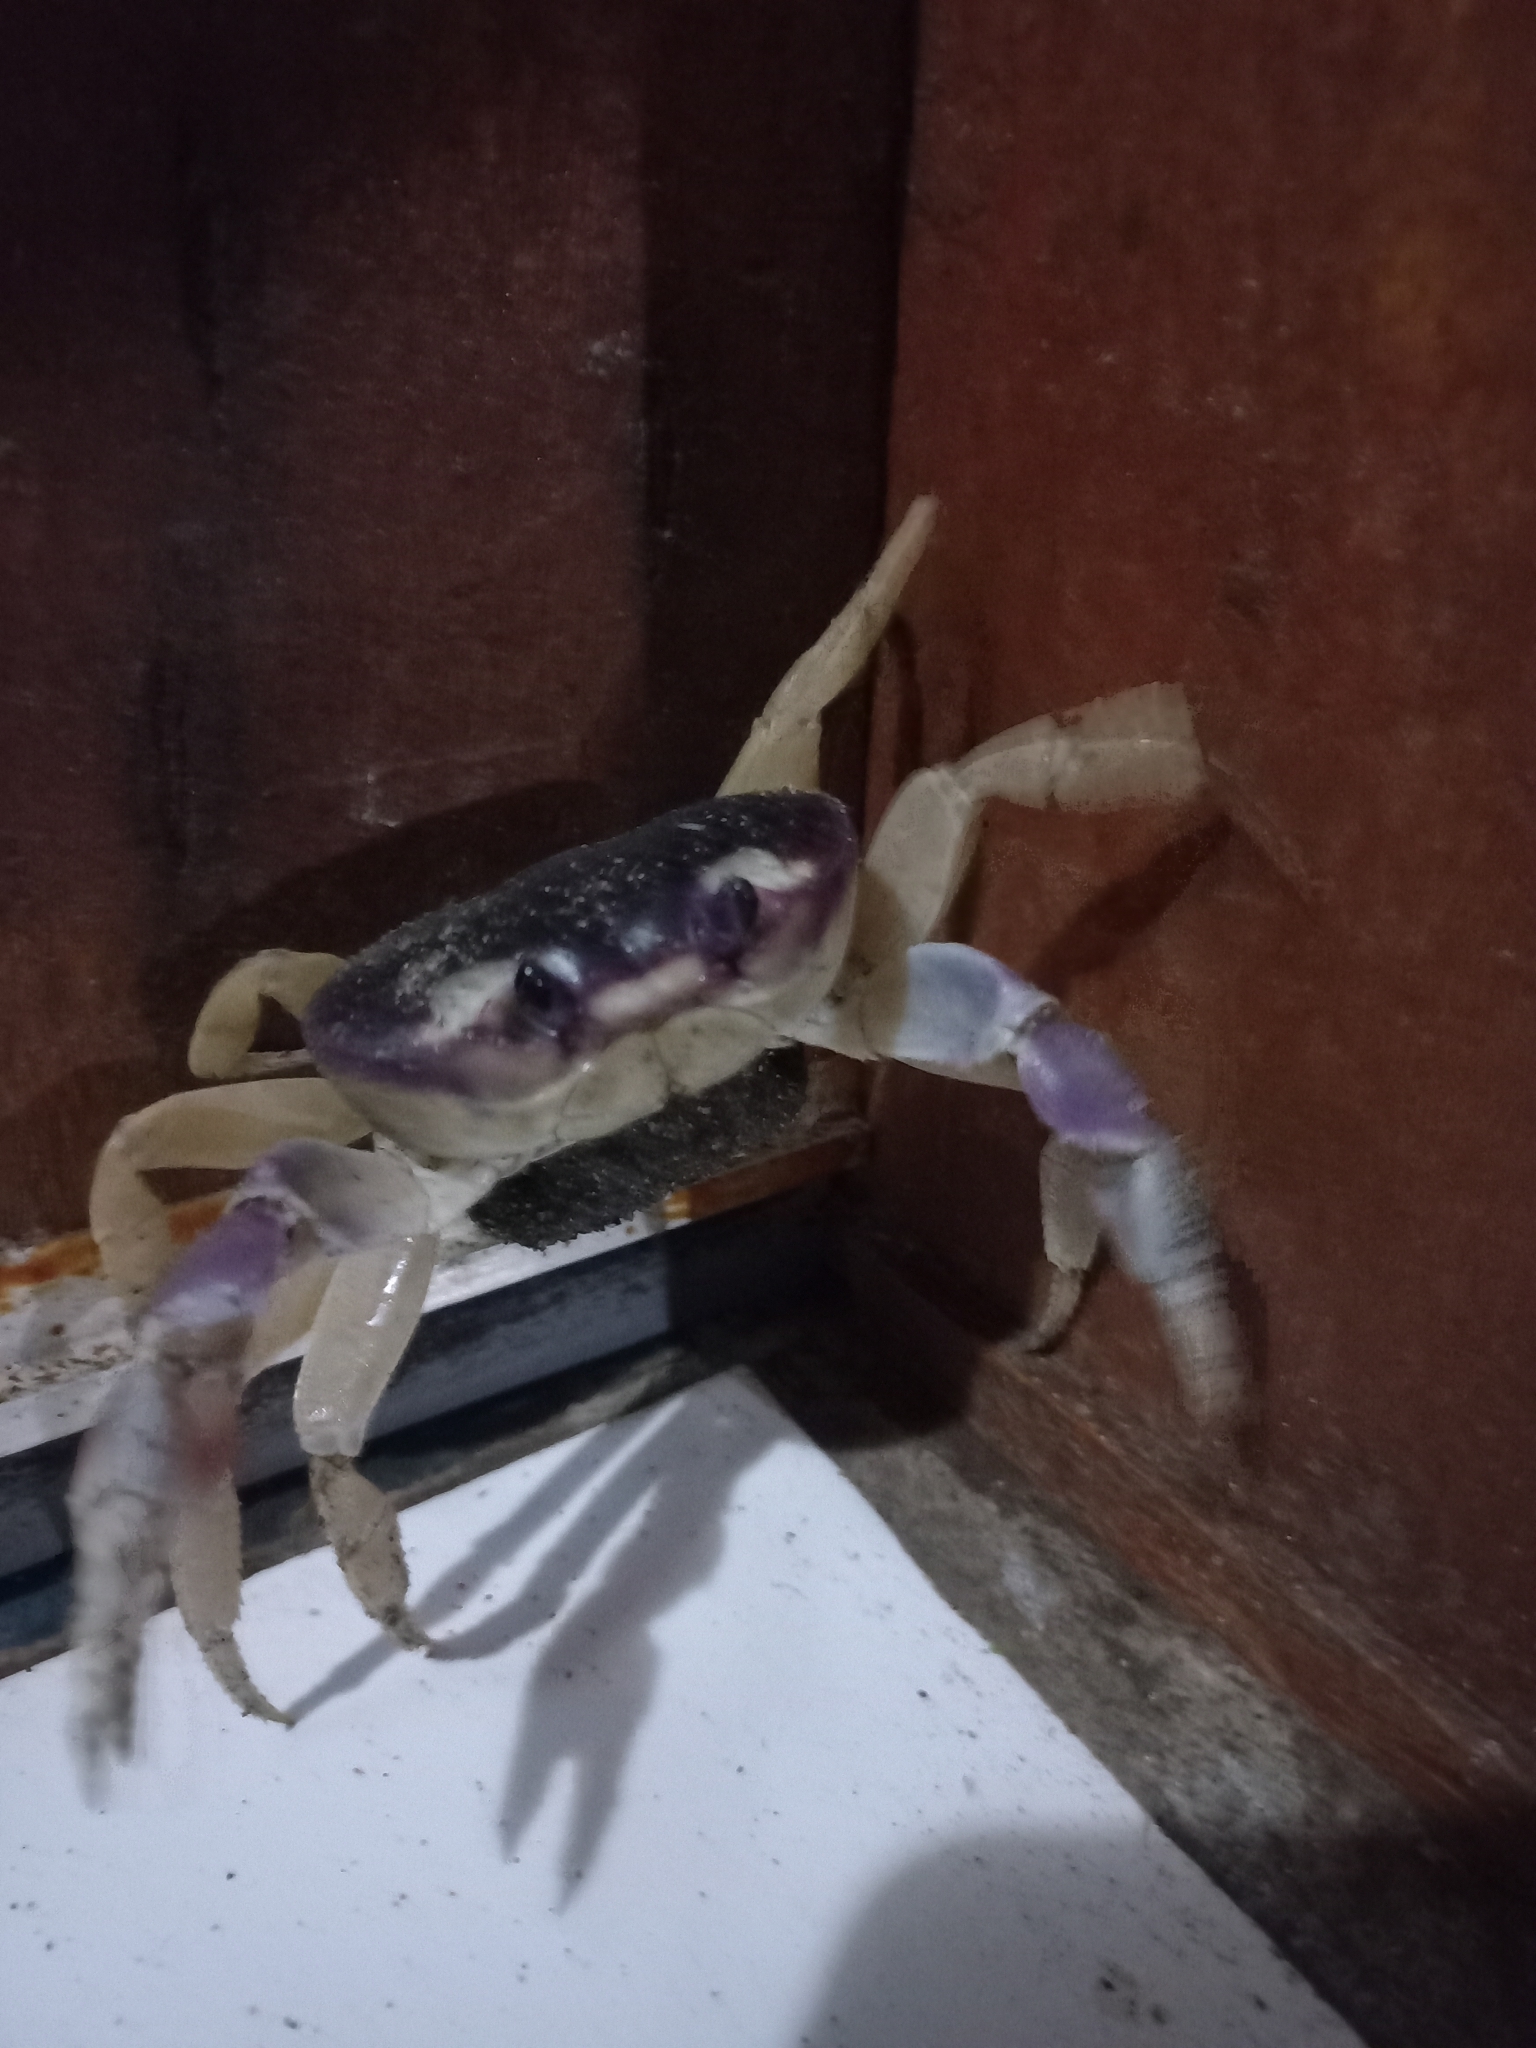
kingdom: Animalia
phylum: Arthropoda
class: Malacostraca
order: Decapoda
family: Gecarcinidae
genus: Gecarcinus
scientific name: Gecarcinus quadratus
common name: Halloween crab
